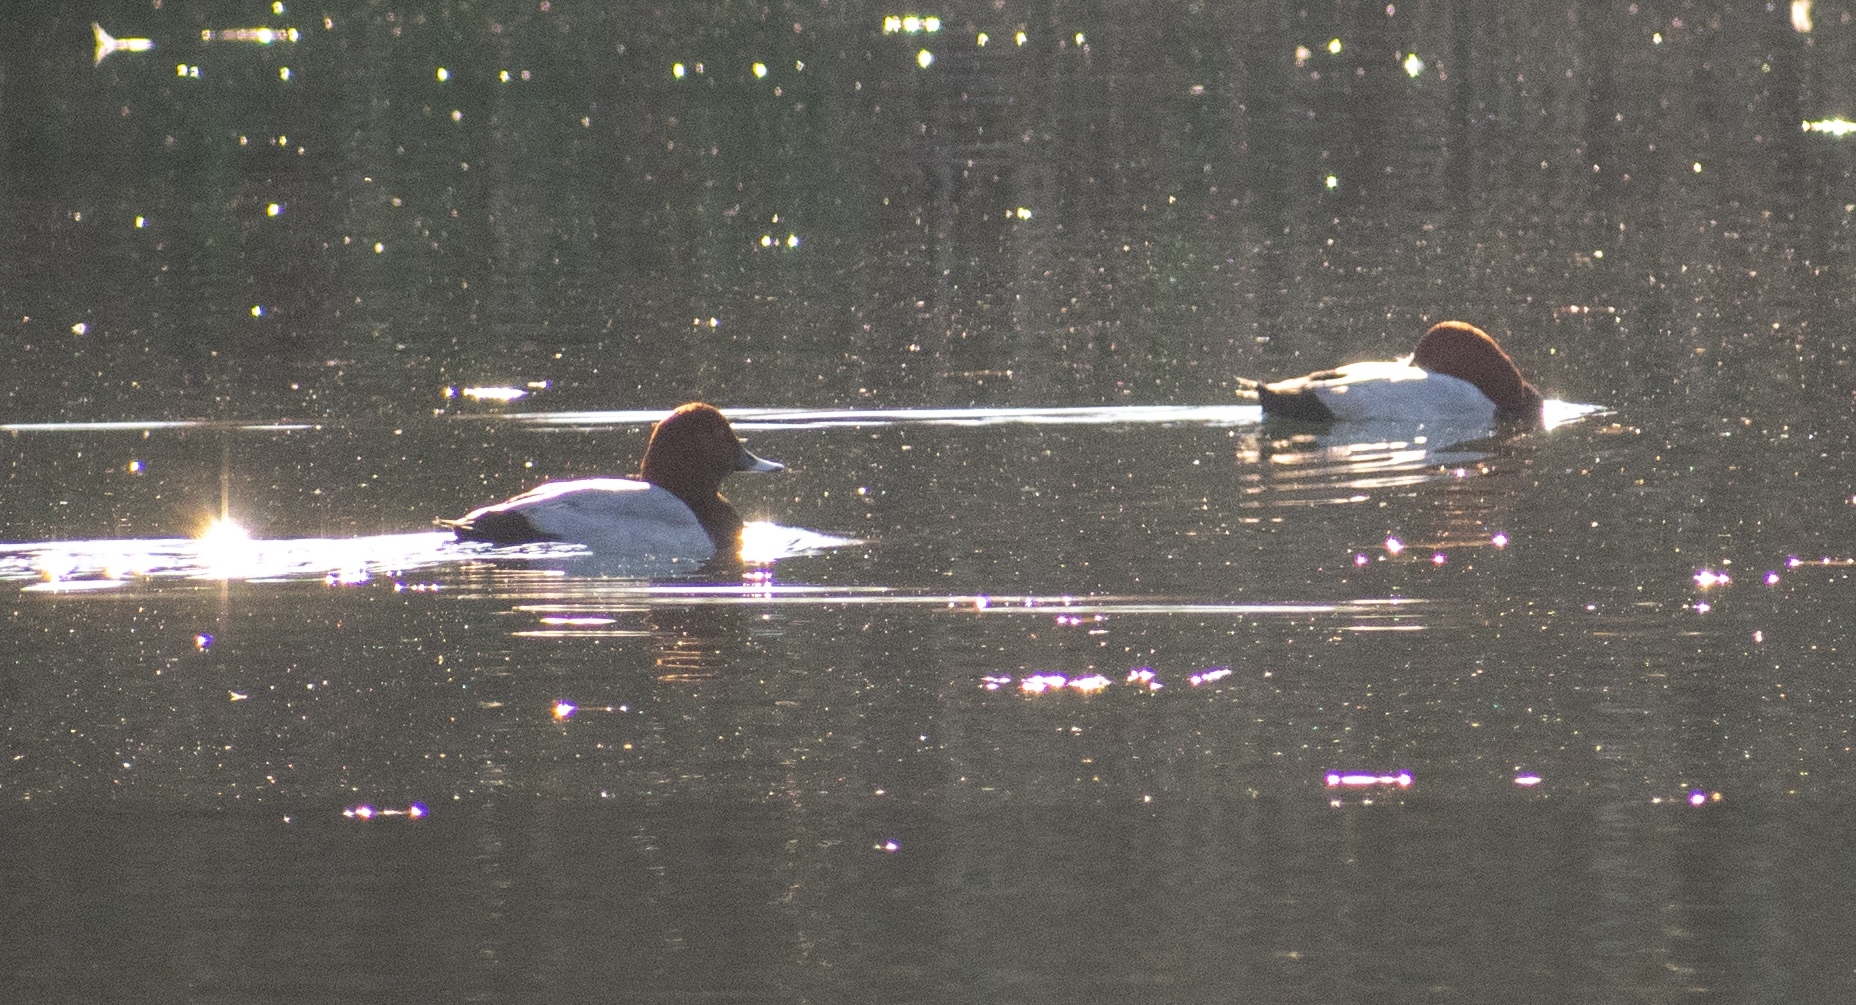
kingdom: Animalia
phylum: Chordata
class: Aves
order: Anseriformes
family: Anatidae
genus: Aythya
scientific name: Aythya ferina
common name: Common pochard
